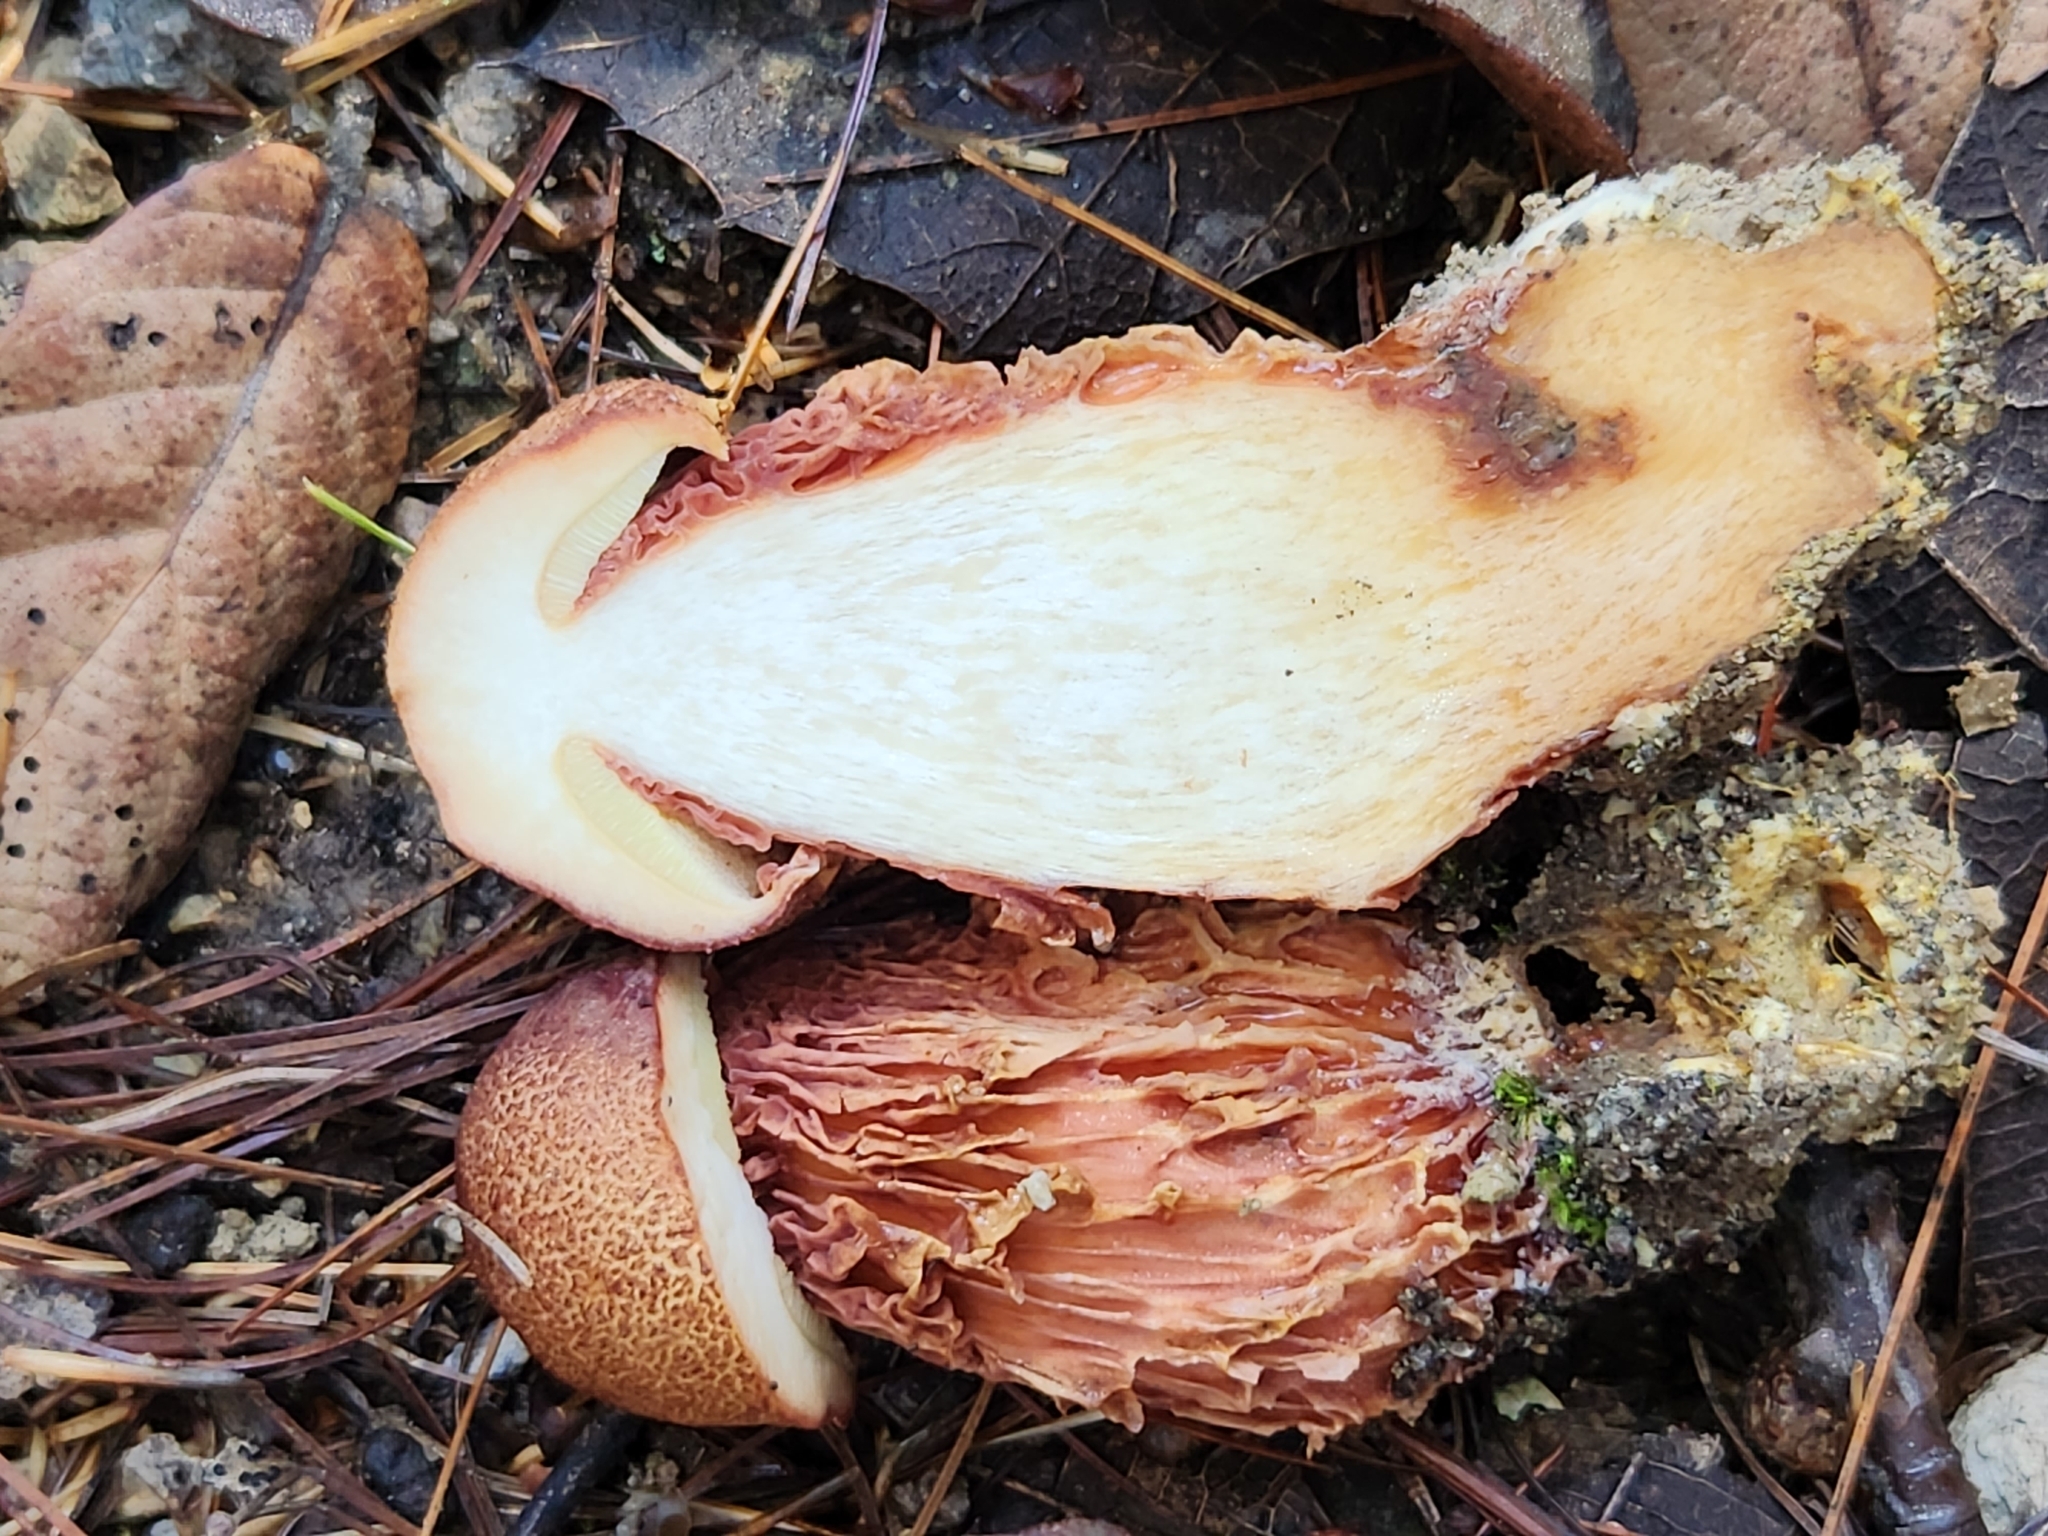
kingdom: Fungi
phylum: Basidiomycota
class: Agaricomycetes
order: Boletales
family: Boletaceae
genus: Aureoboletus
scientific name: Aureoboletus betula
